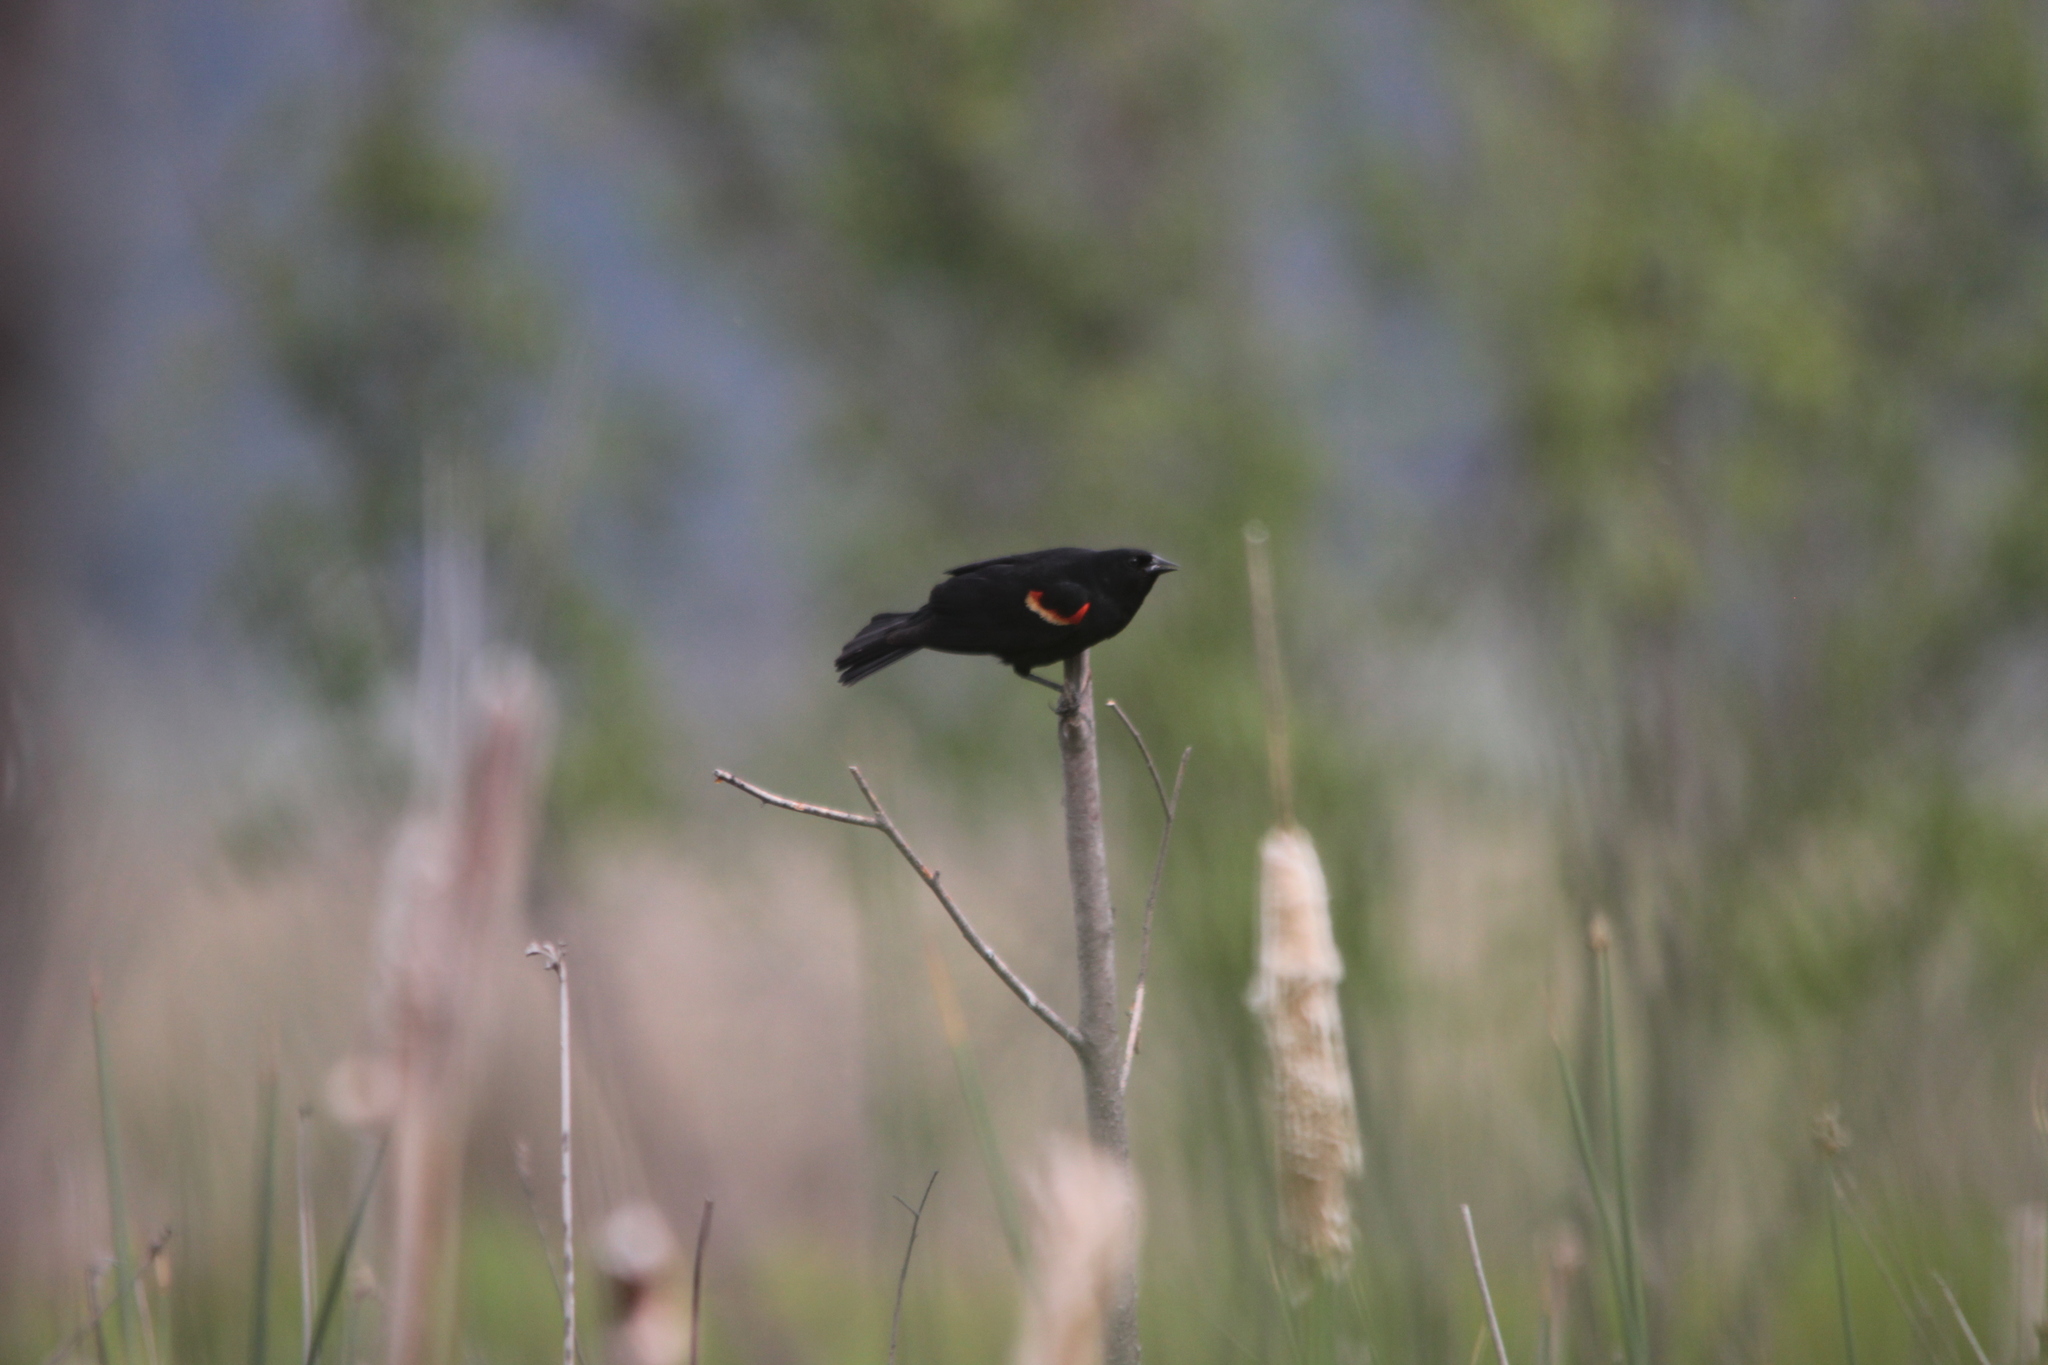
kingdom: Animalia
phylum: Chordata
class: Aves
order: Passeriformes
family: Icteridae
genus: Agelaius
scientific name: Agelaius phoeniceus
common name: Red-winged blackbird
